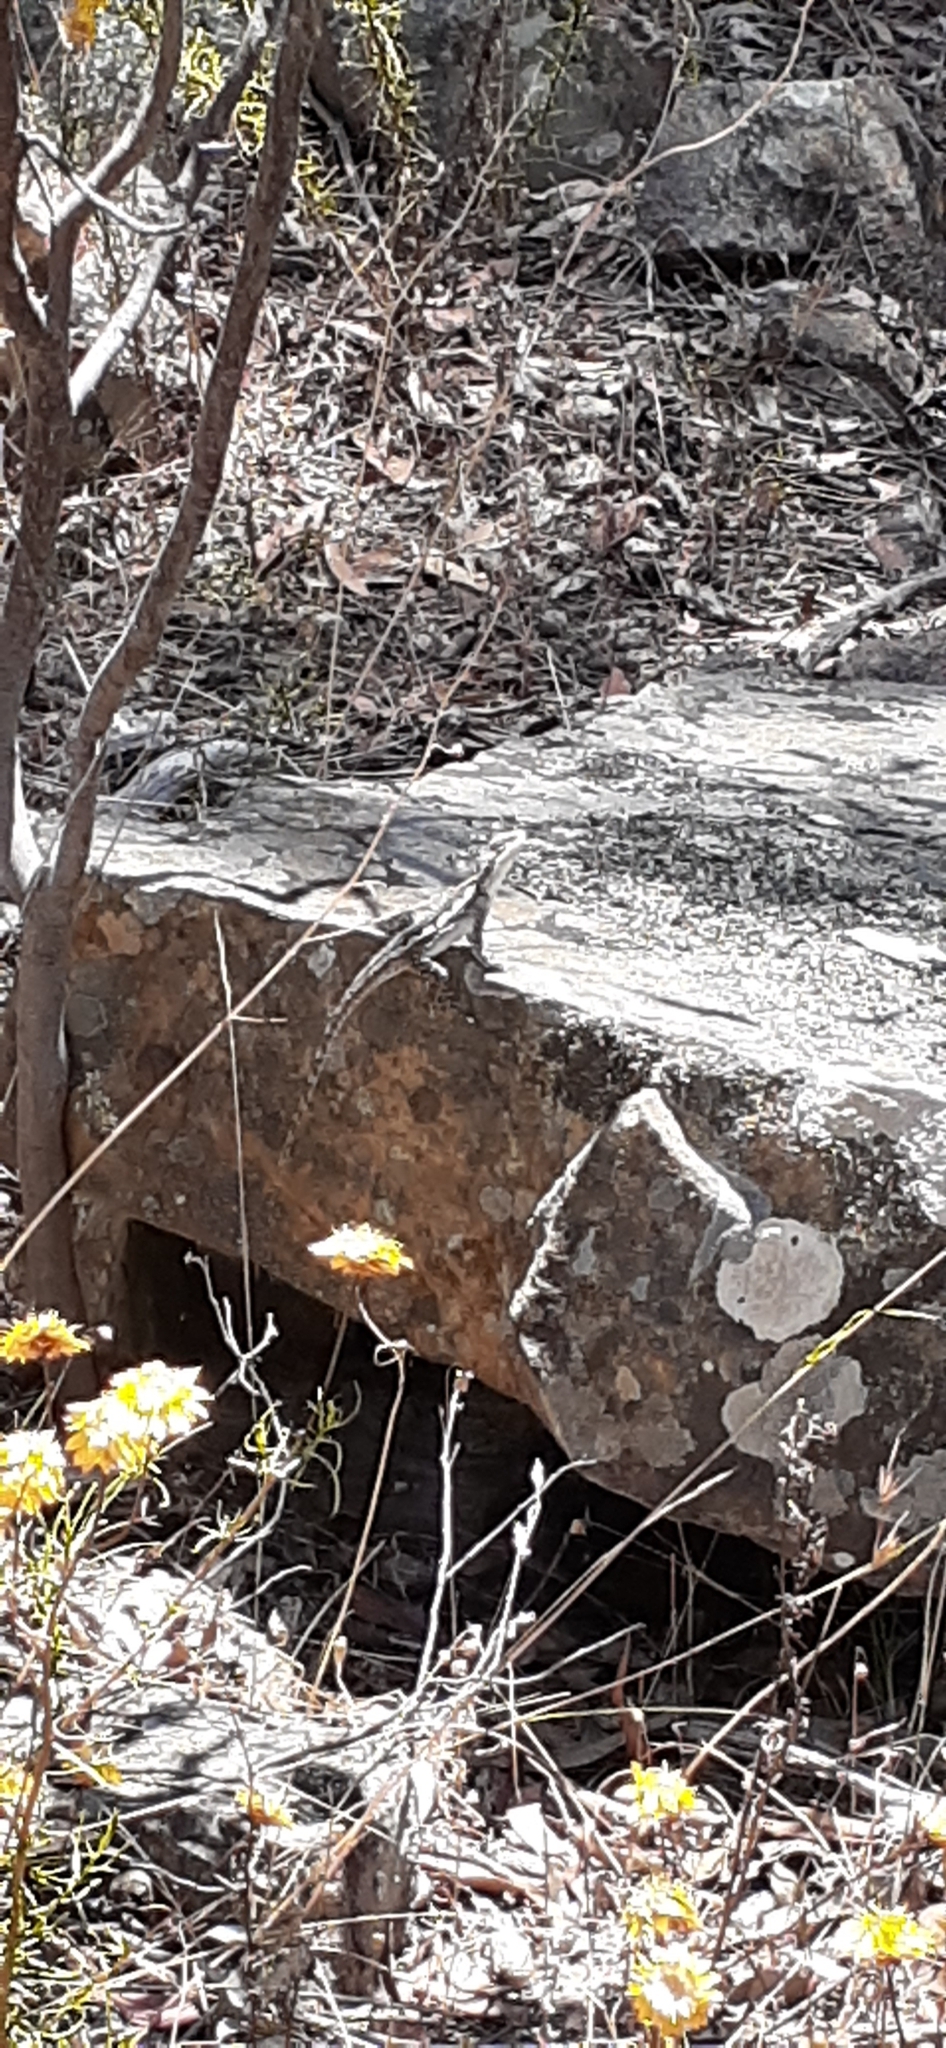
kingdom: Animalia
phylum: Chordata
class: Squamata
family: Agamidae
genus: Amphibolurus
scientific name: Amphibolurus muricatus
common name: Jacky lizard
